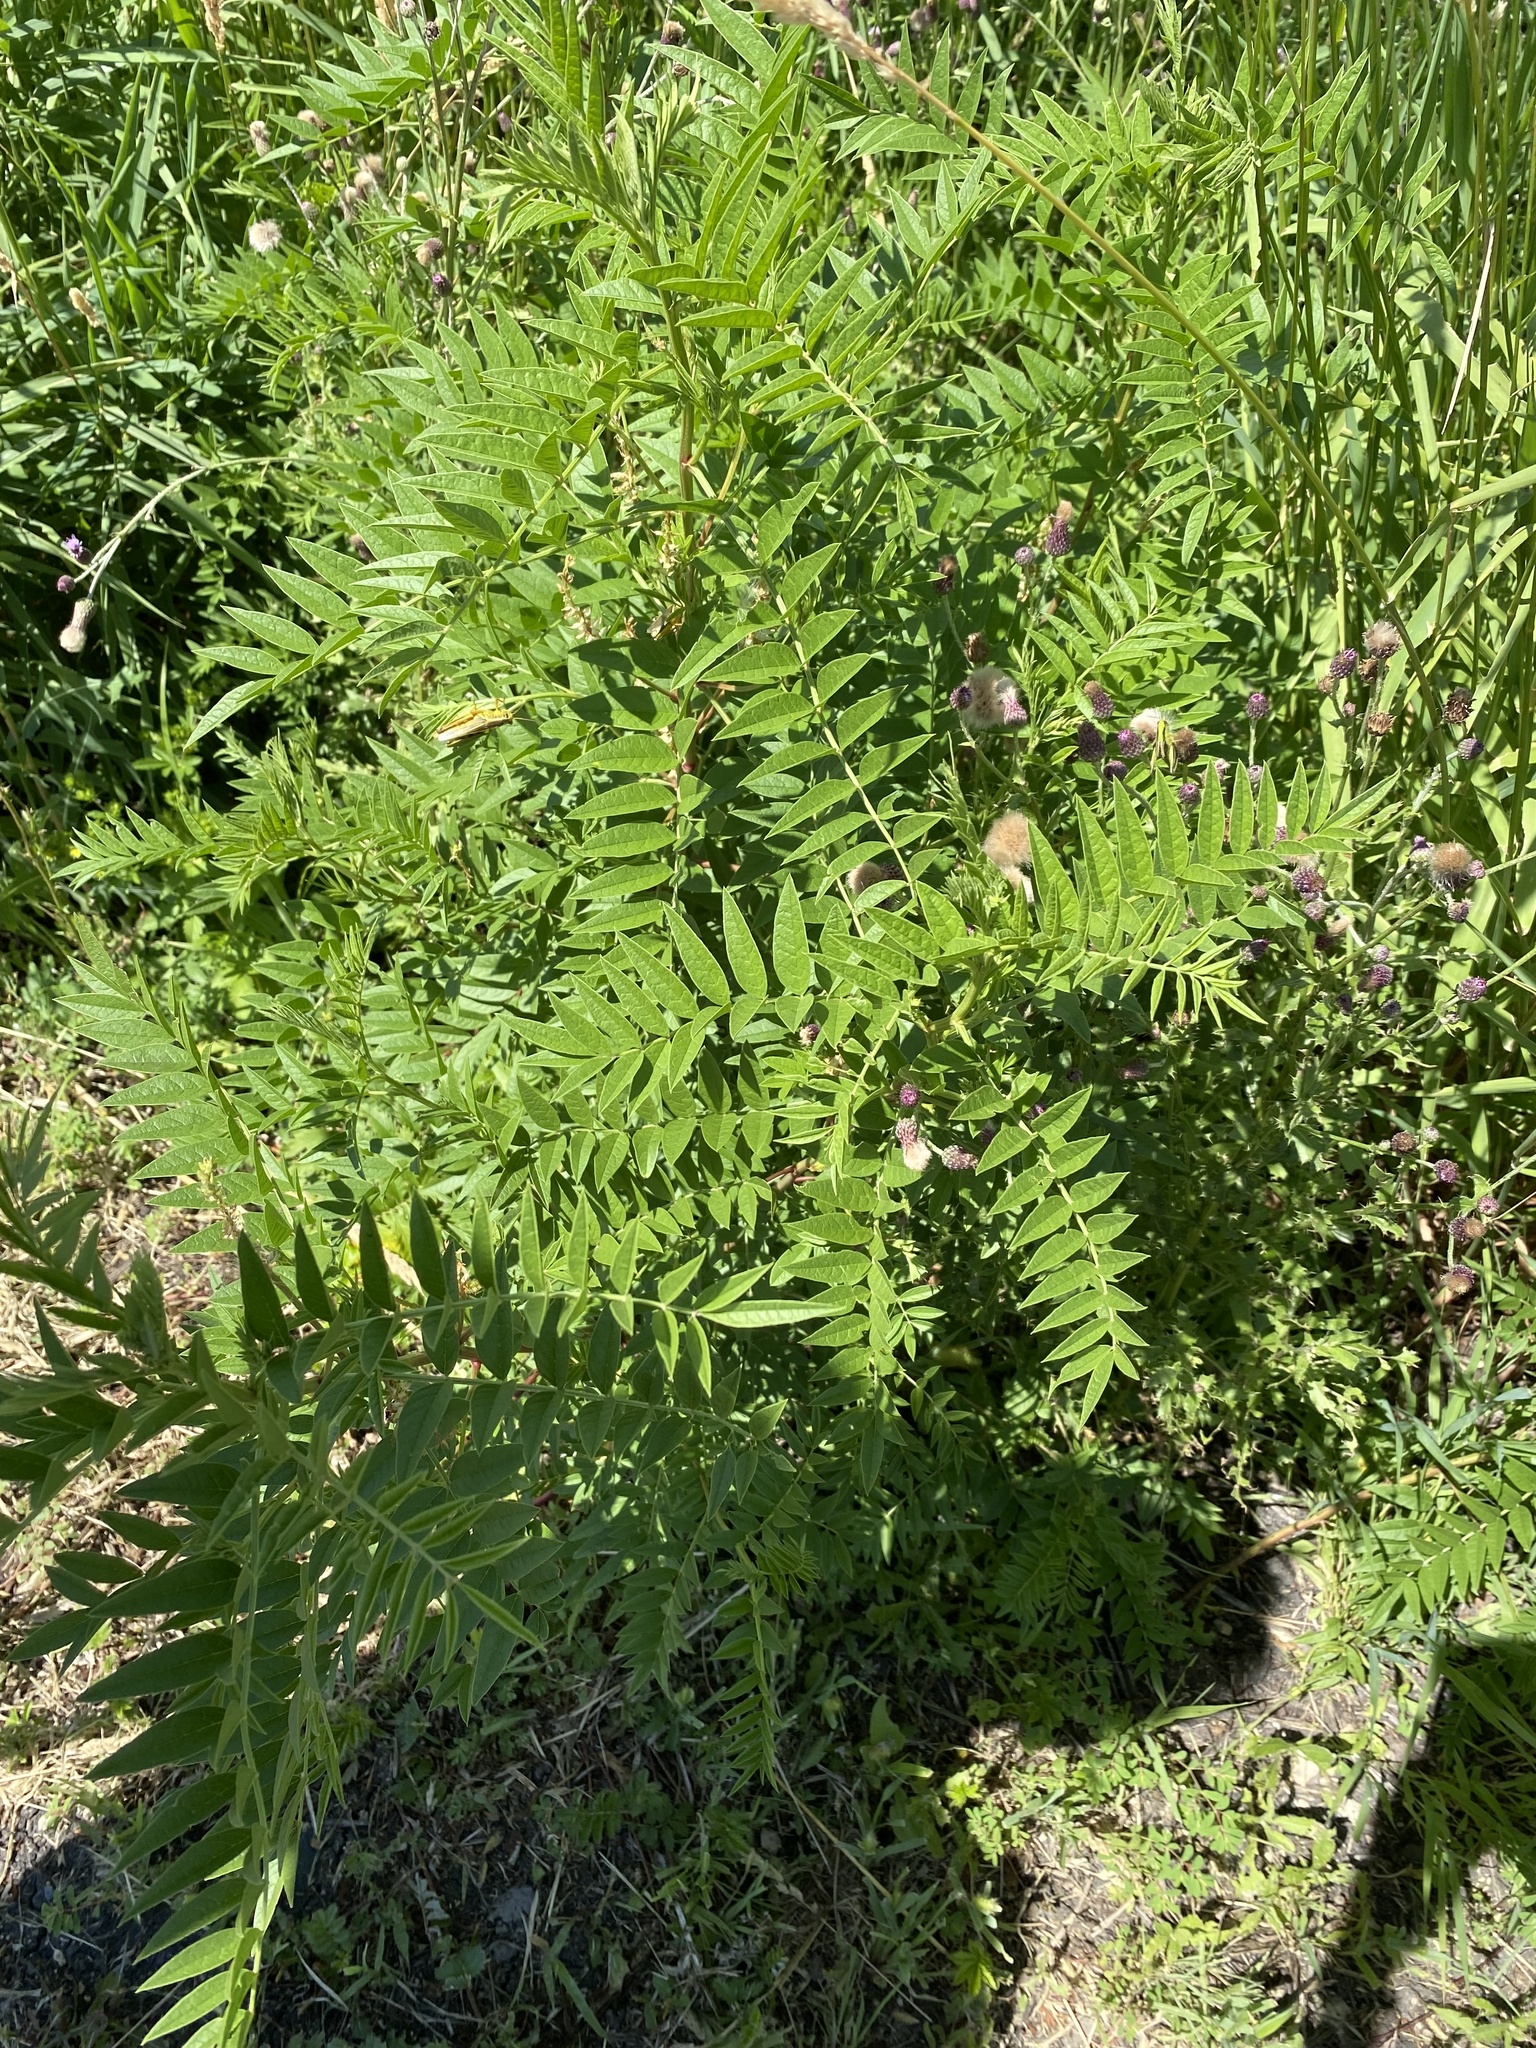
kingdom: Plantae
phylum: Tracheophyta
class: Magnoliopsida
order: Fabales
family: Fabaceae
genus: Glycyrrhiza
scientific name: Glycyrrhiza lepidota
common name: American liquorice
